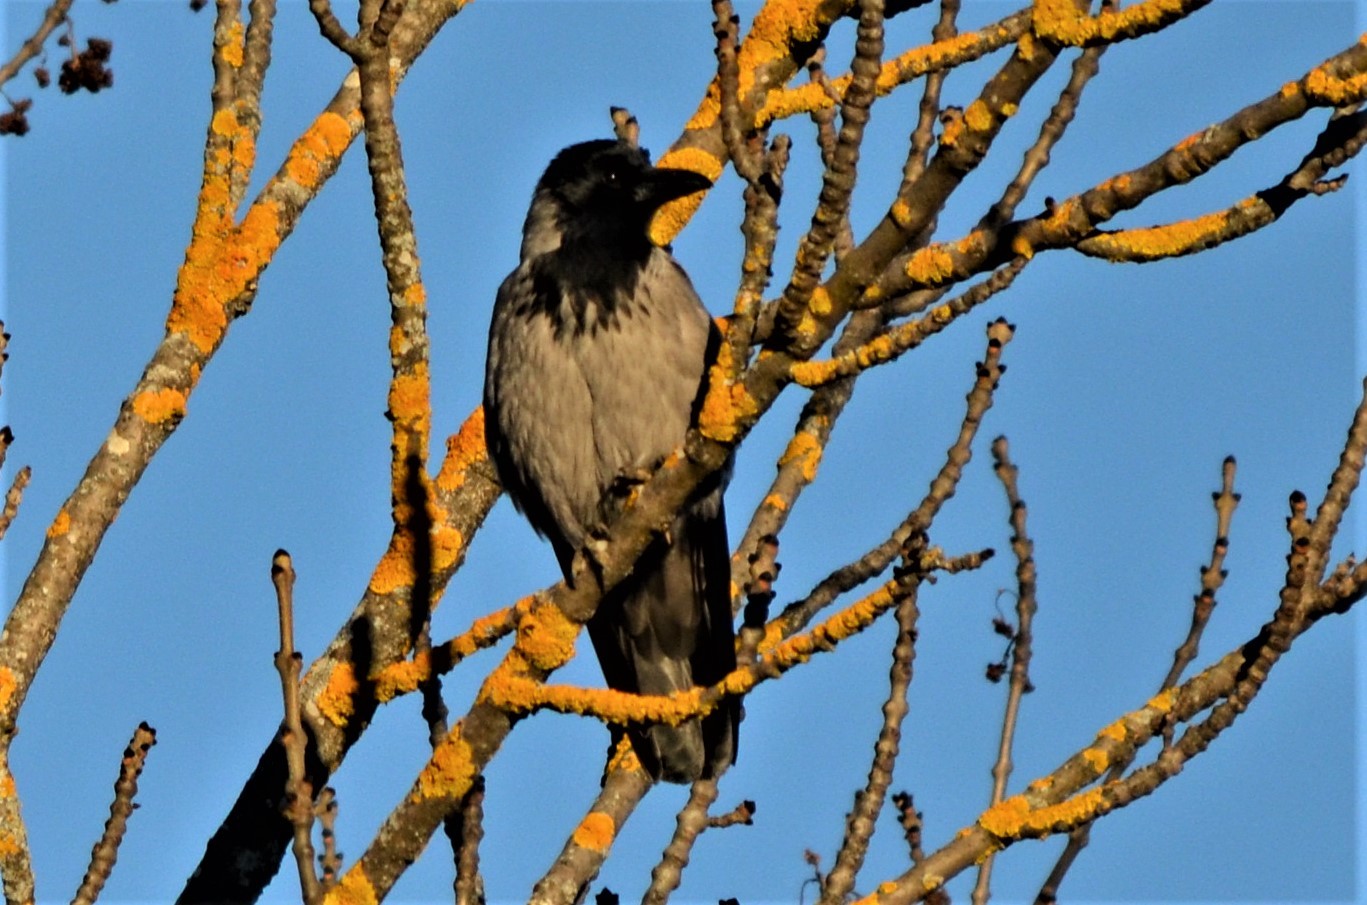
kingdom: Animalia
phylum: Chordata
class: Aves
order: Passeriformes
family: Corvidae
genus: Corvus
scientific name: Corvus cornix
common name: Hooded crow
